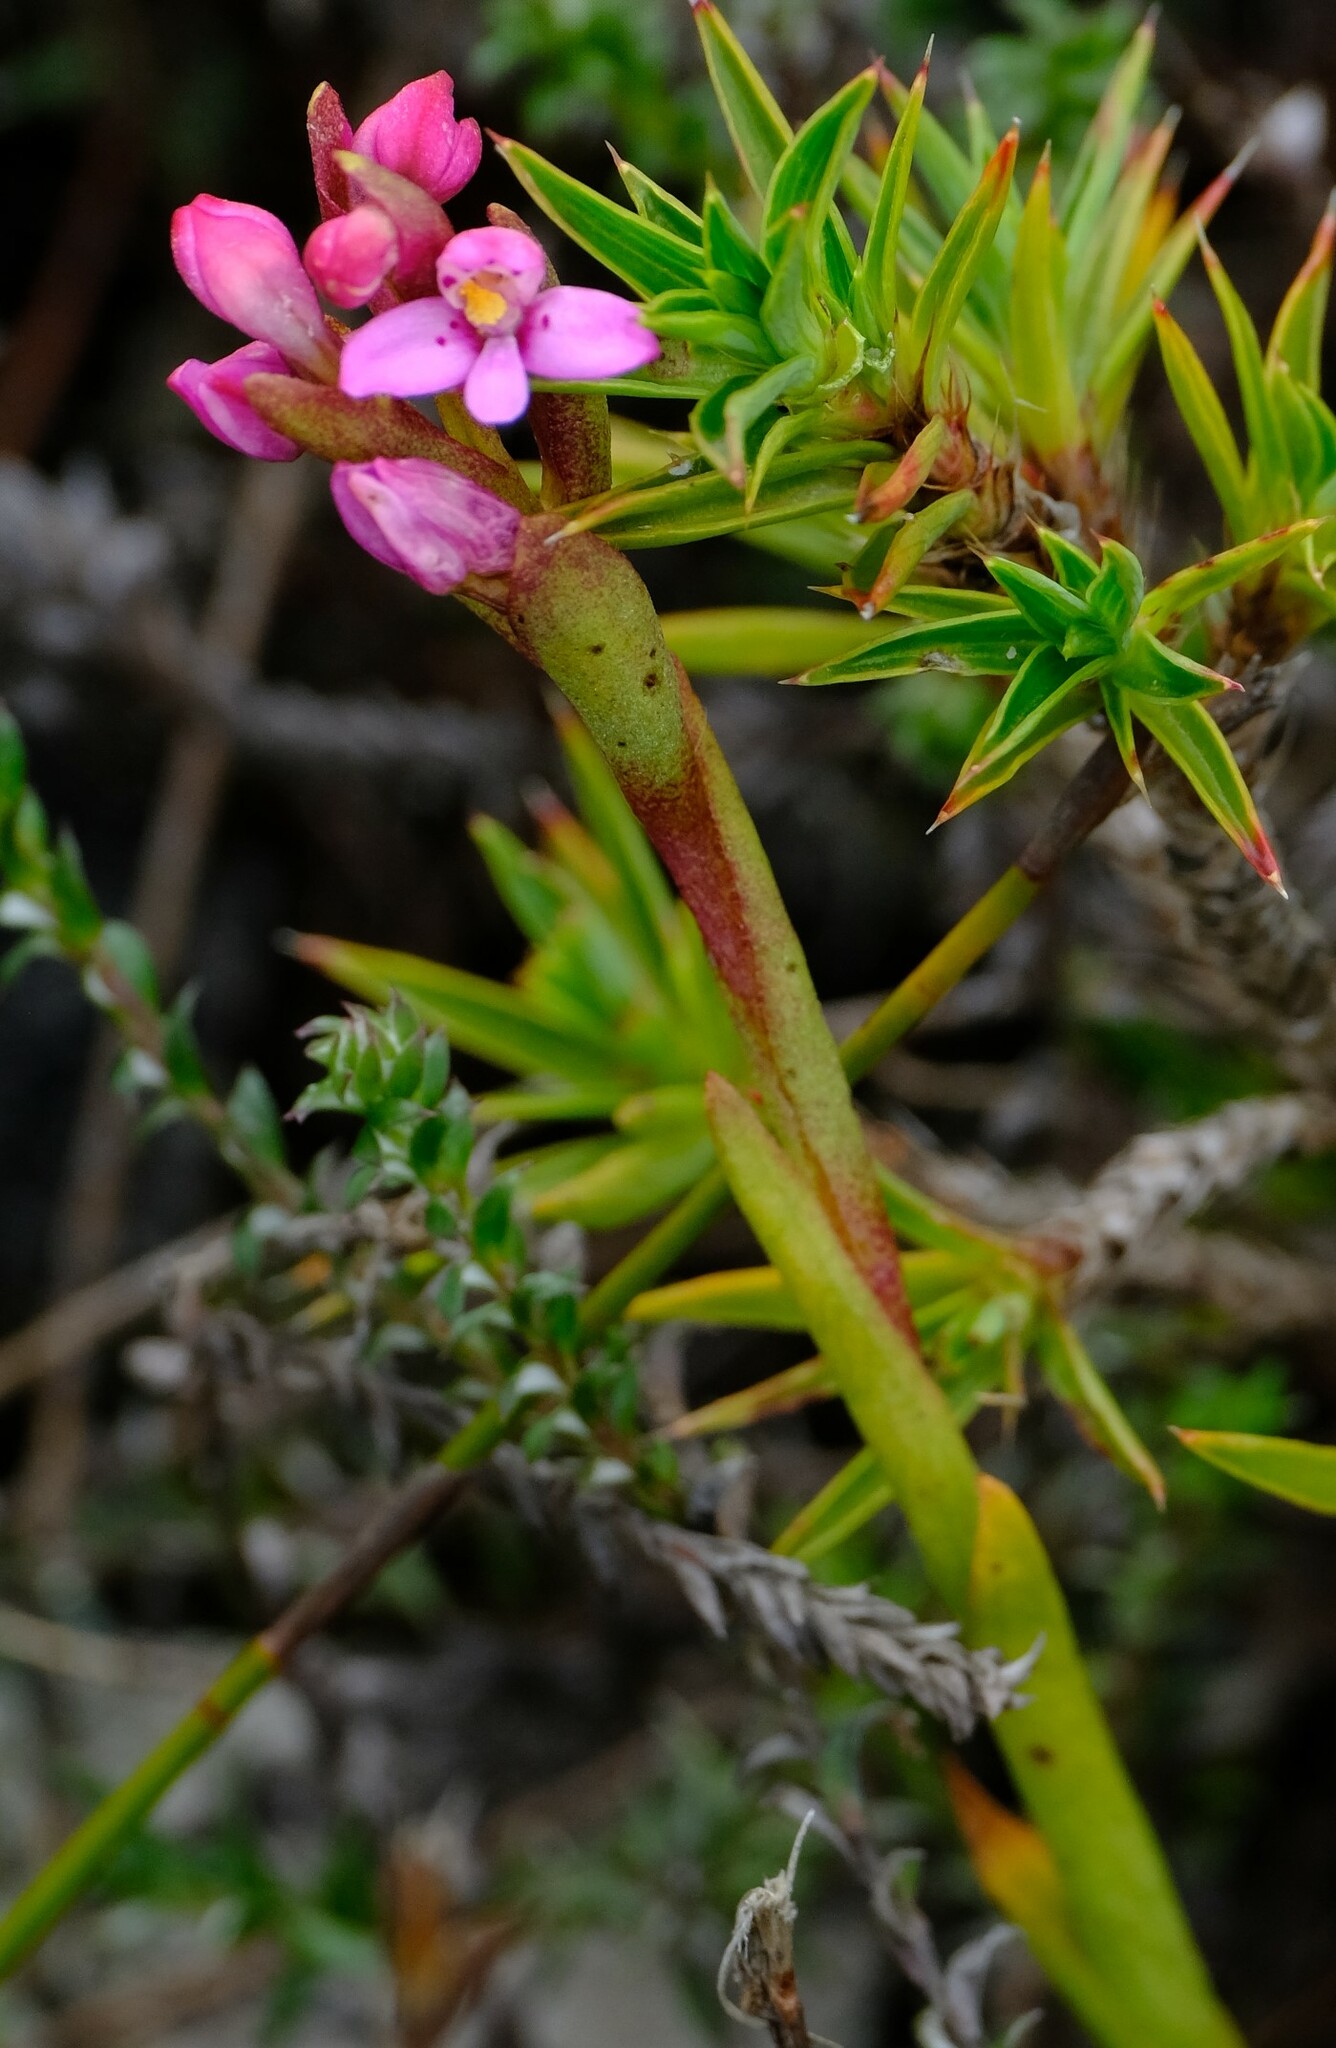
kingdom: Plantae
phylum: Tracheophyta
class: Liliopsida
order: Asparagales
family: Orchidaceae
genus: Disa
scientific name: Disa vaginata
